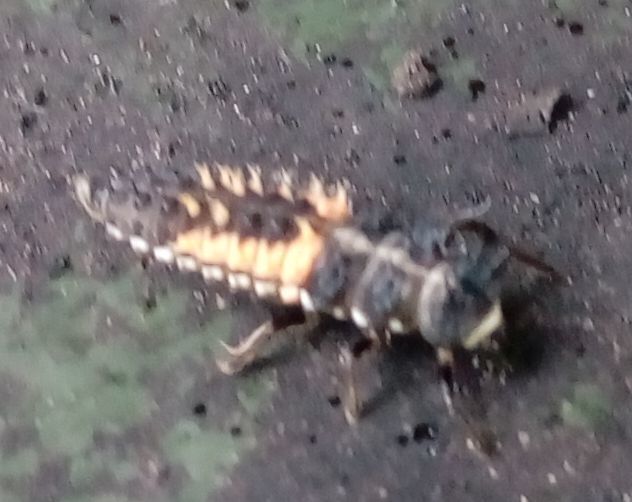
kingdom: Animalia
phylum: Arthropoda
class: Insecta
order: Coleoptera
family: Coccinellidae
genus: Harmonia
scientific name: Harmonia axyridis
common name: Harlequin ladybird
